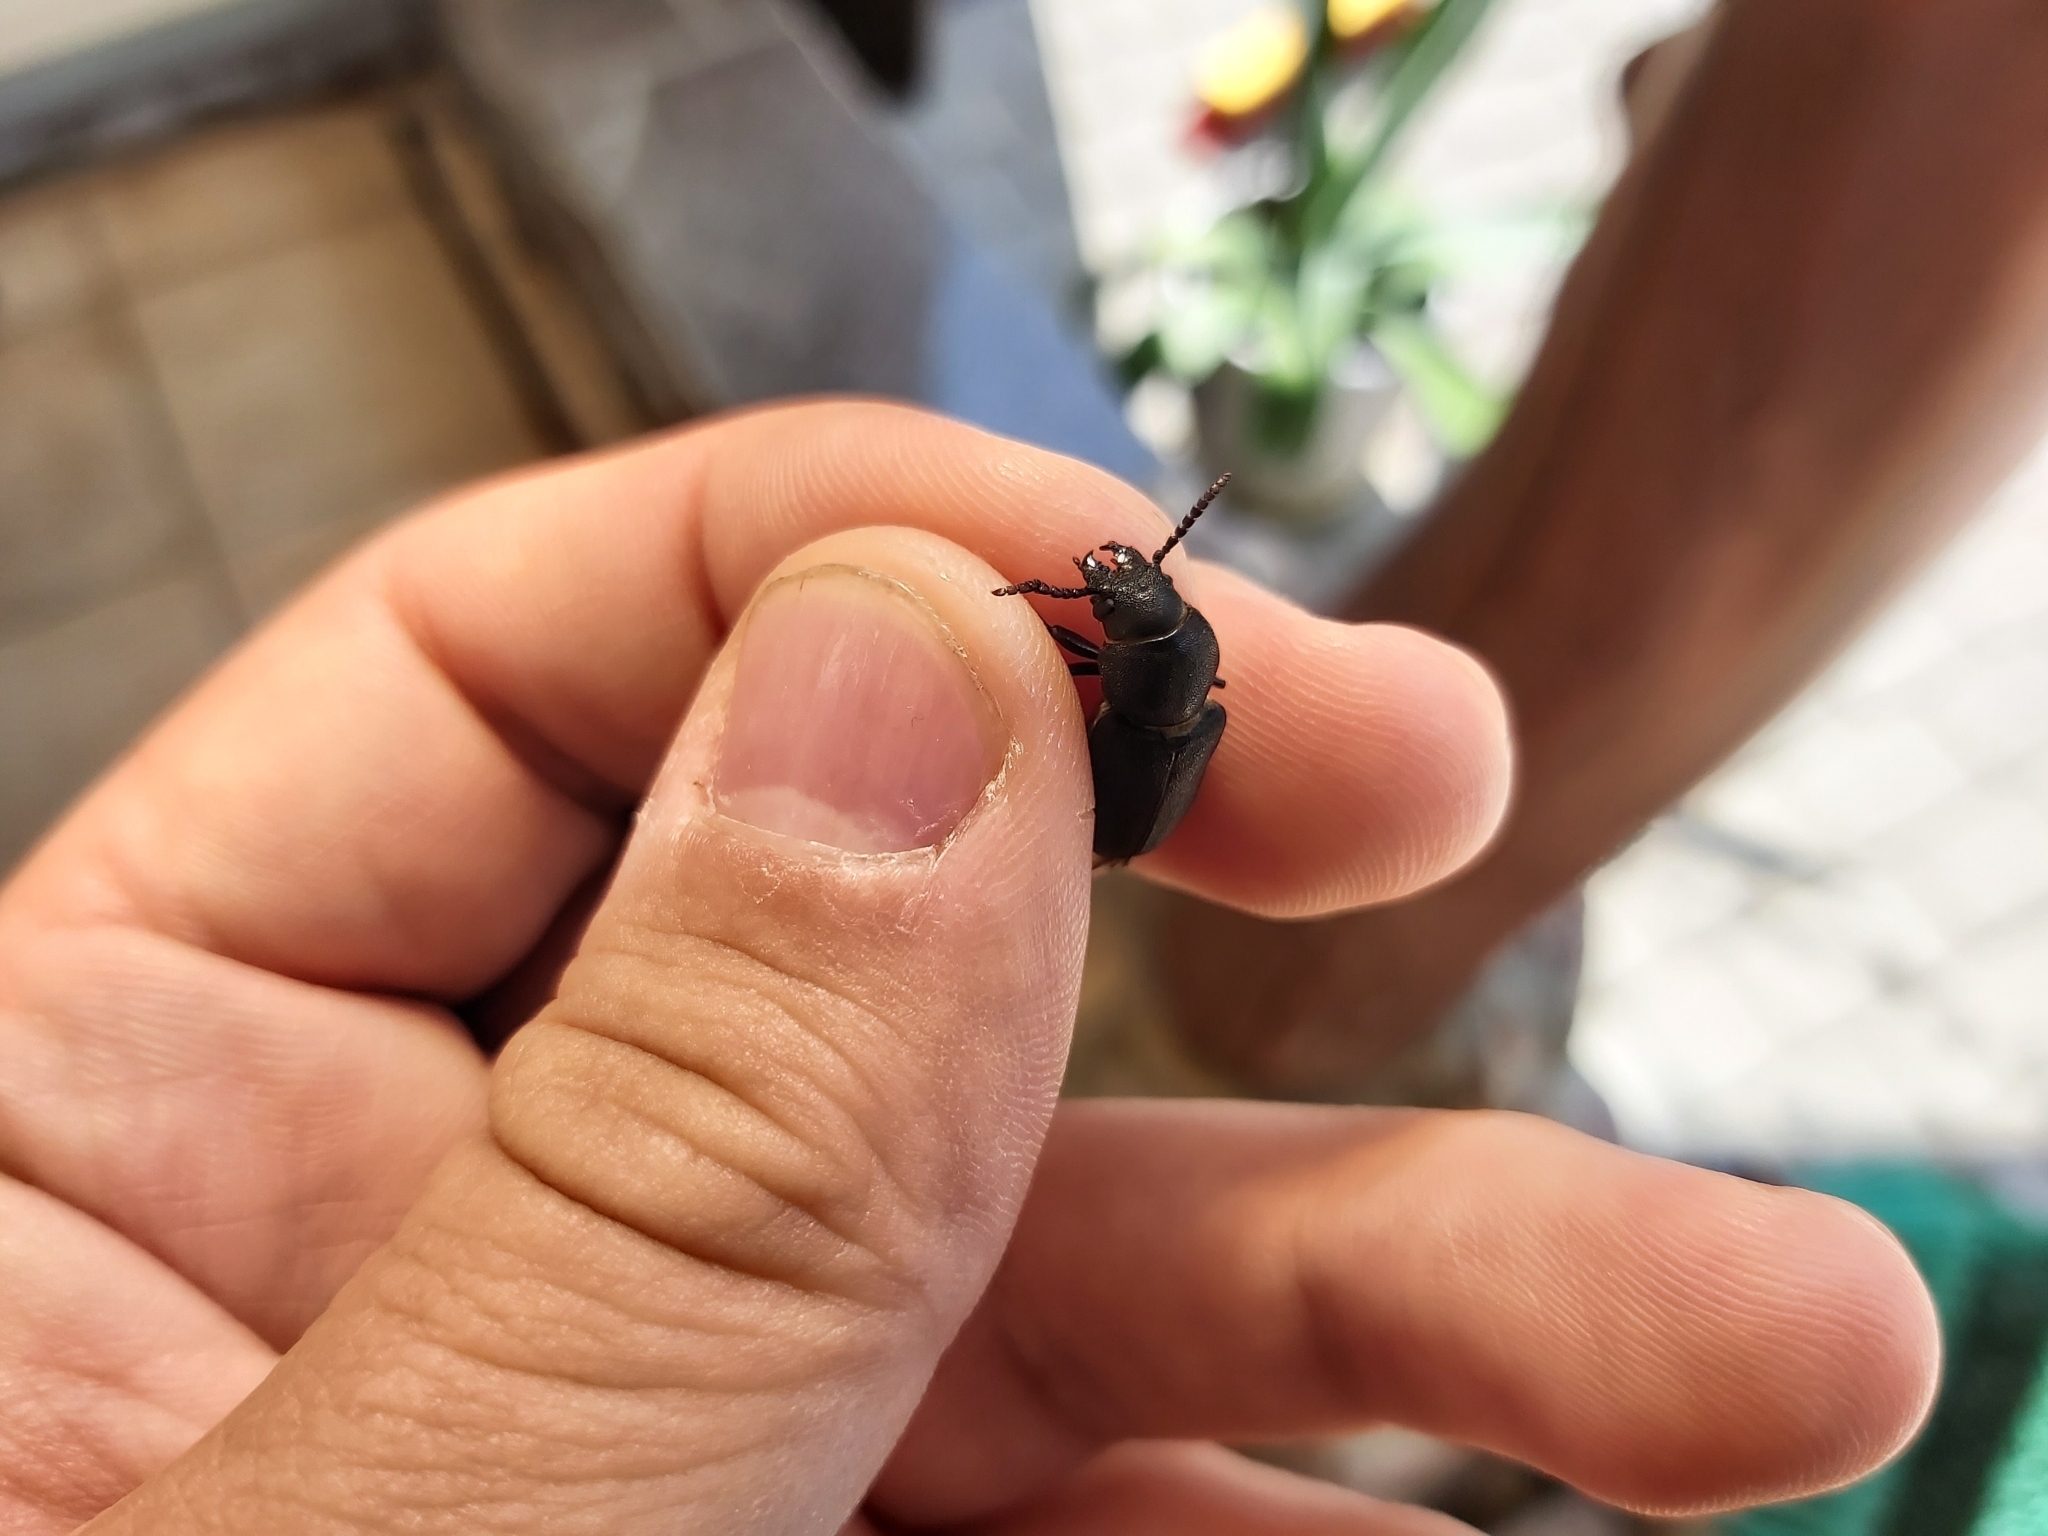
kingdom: Animalia
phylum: Arthropoda
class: Insecta
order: Coleoptera
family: Cerambycidae
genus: Spondylis
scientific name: Spondylis buprestoides
